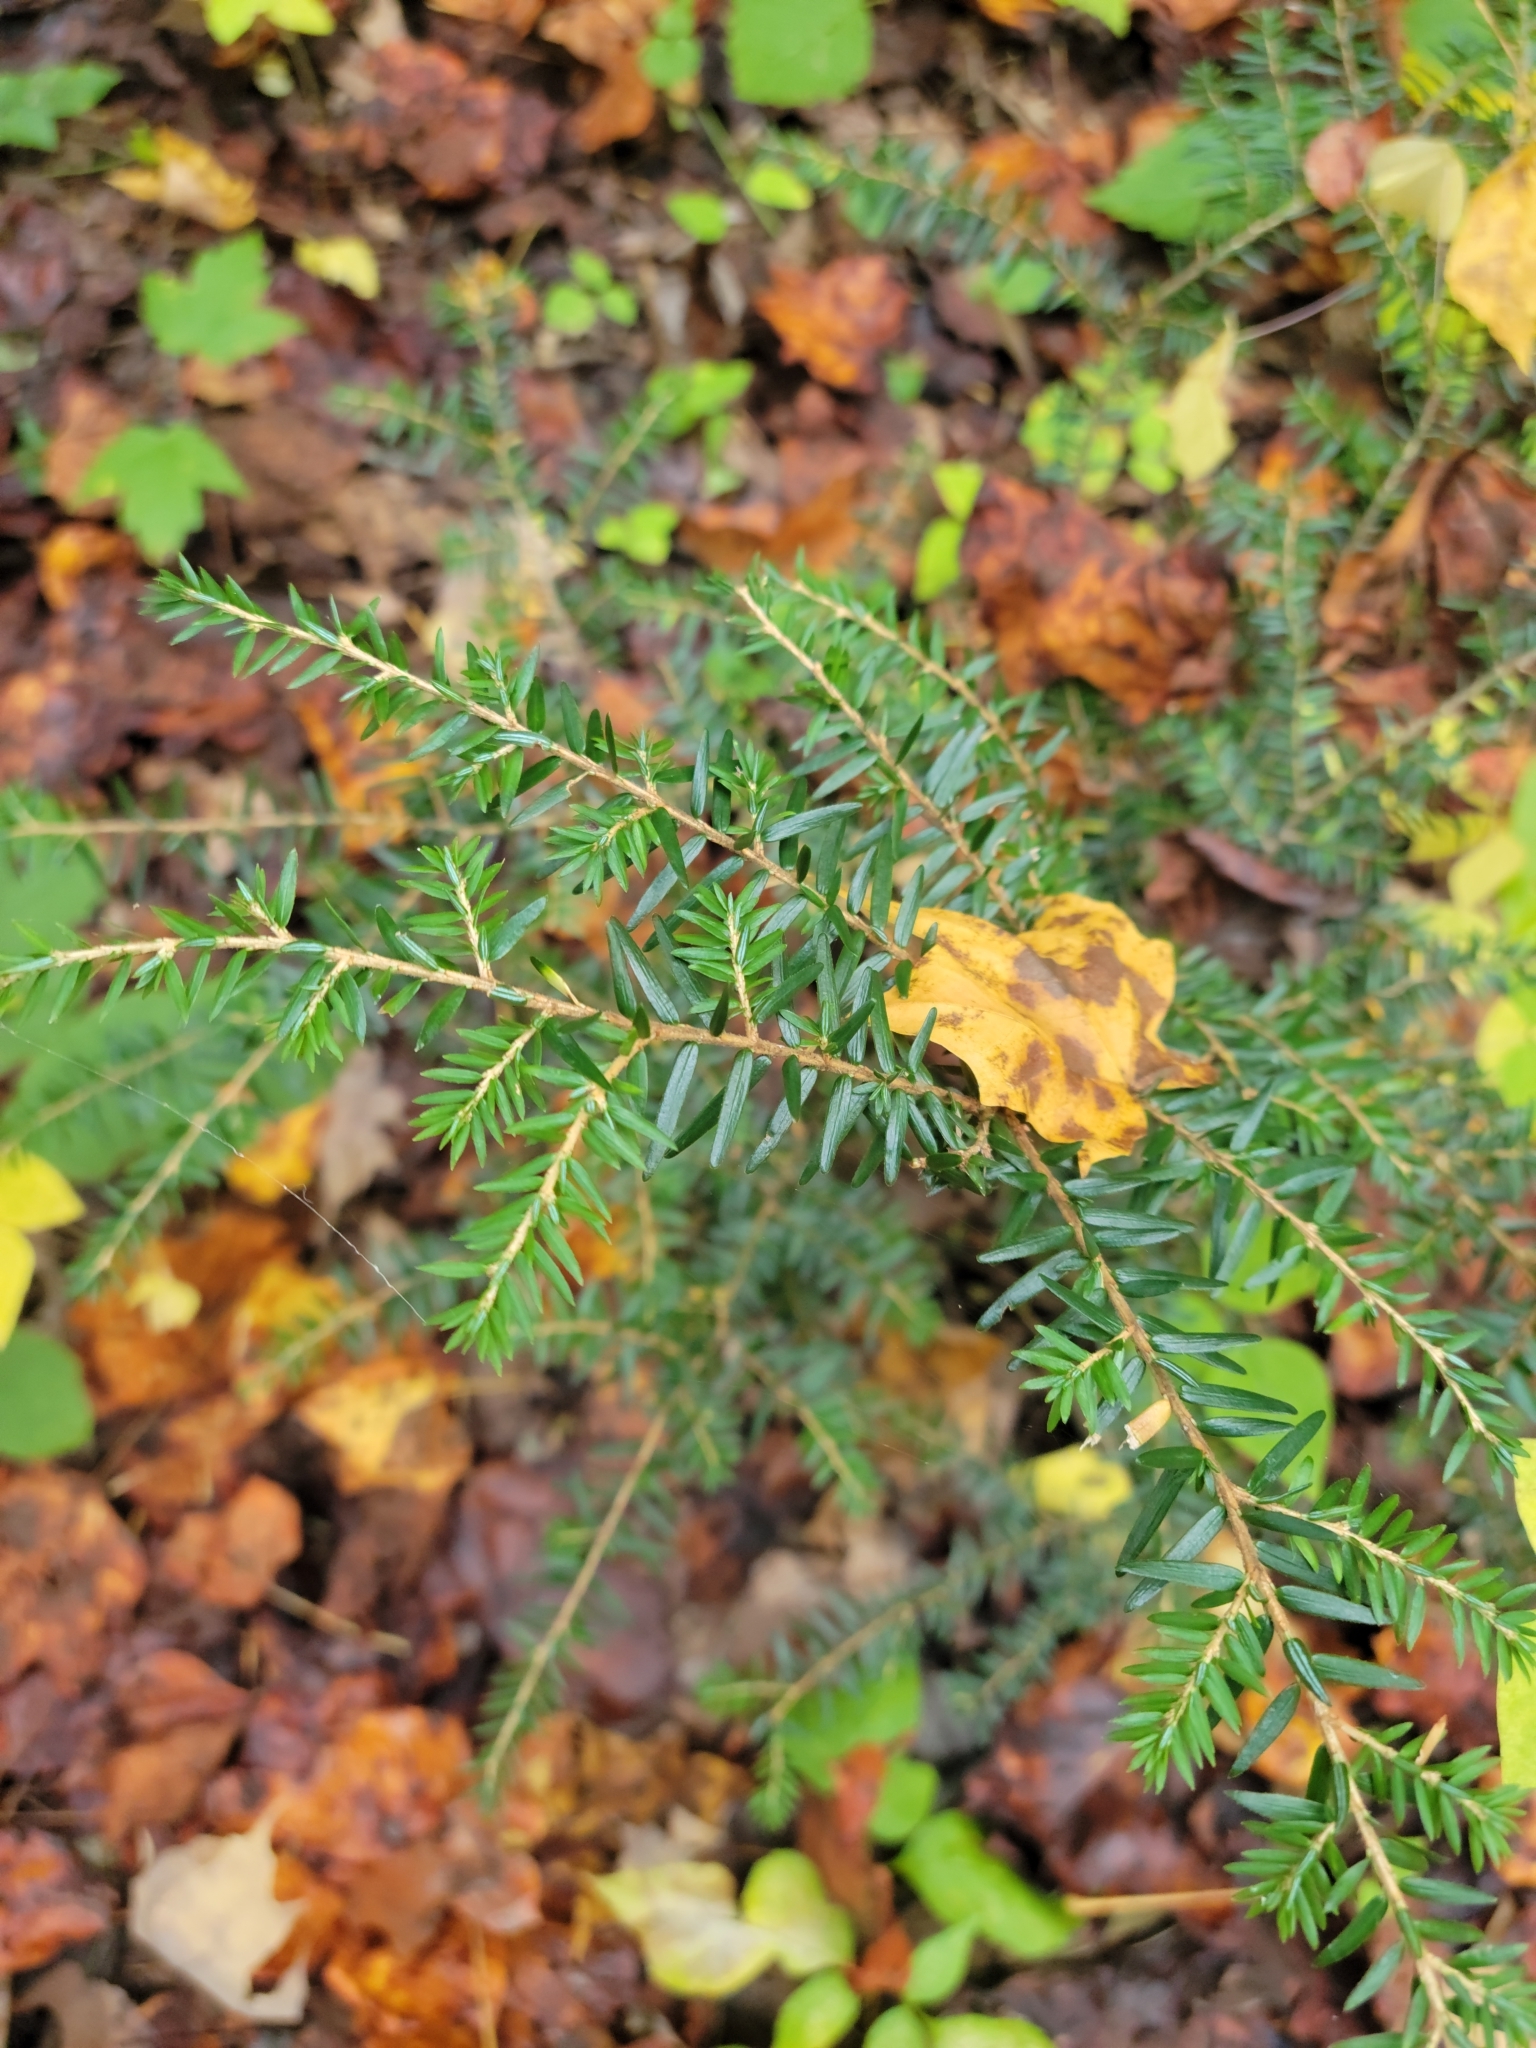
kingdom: Plantae
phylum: Tracheophyta
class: Pinopsida
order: Pinales
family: Pinaceae
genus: Tsuga
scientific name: Tsuga canadensis
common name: Eastern hemlock
